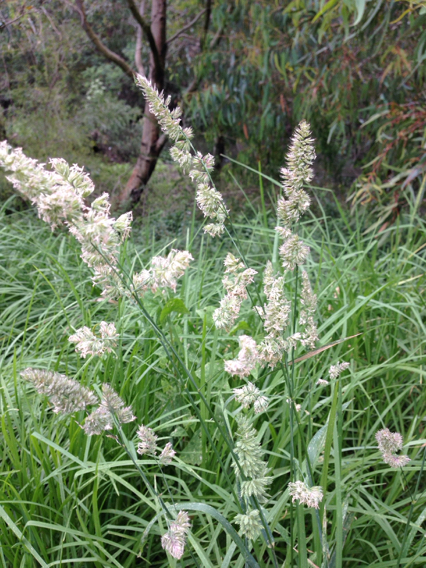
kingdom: Plantae
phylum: Tracheophyta
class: Liliopsida
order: Poales
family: Poaceae
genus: Dactylis
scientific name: Dactylis glomerata
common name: Orchardgrass
